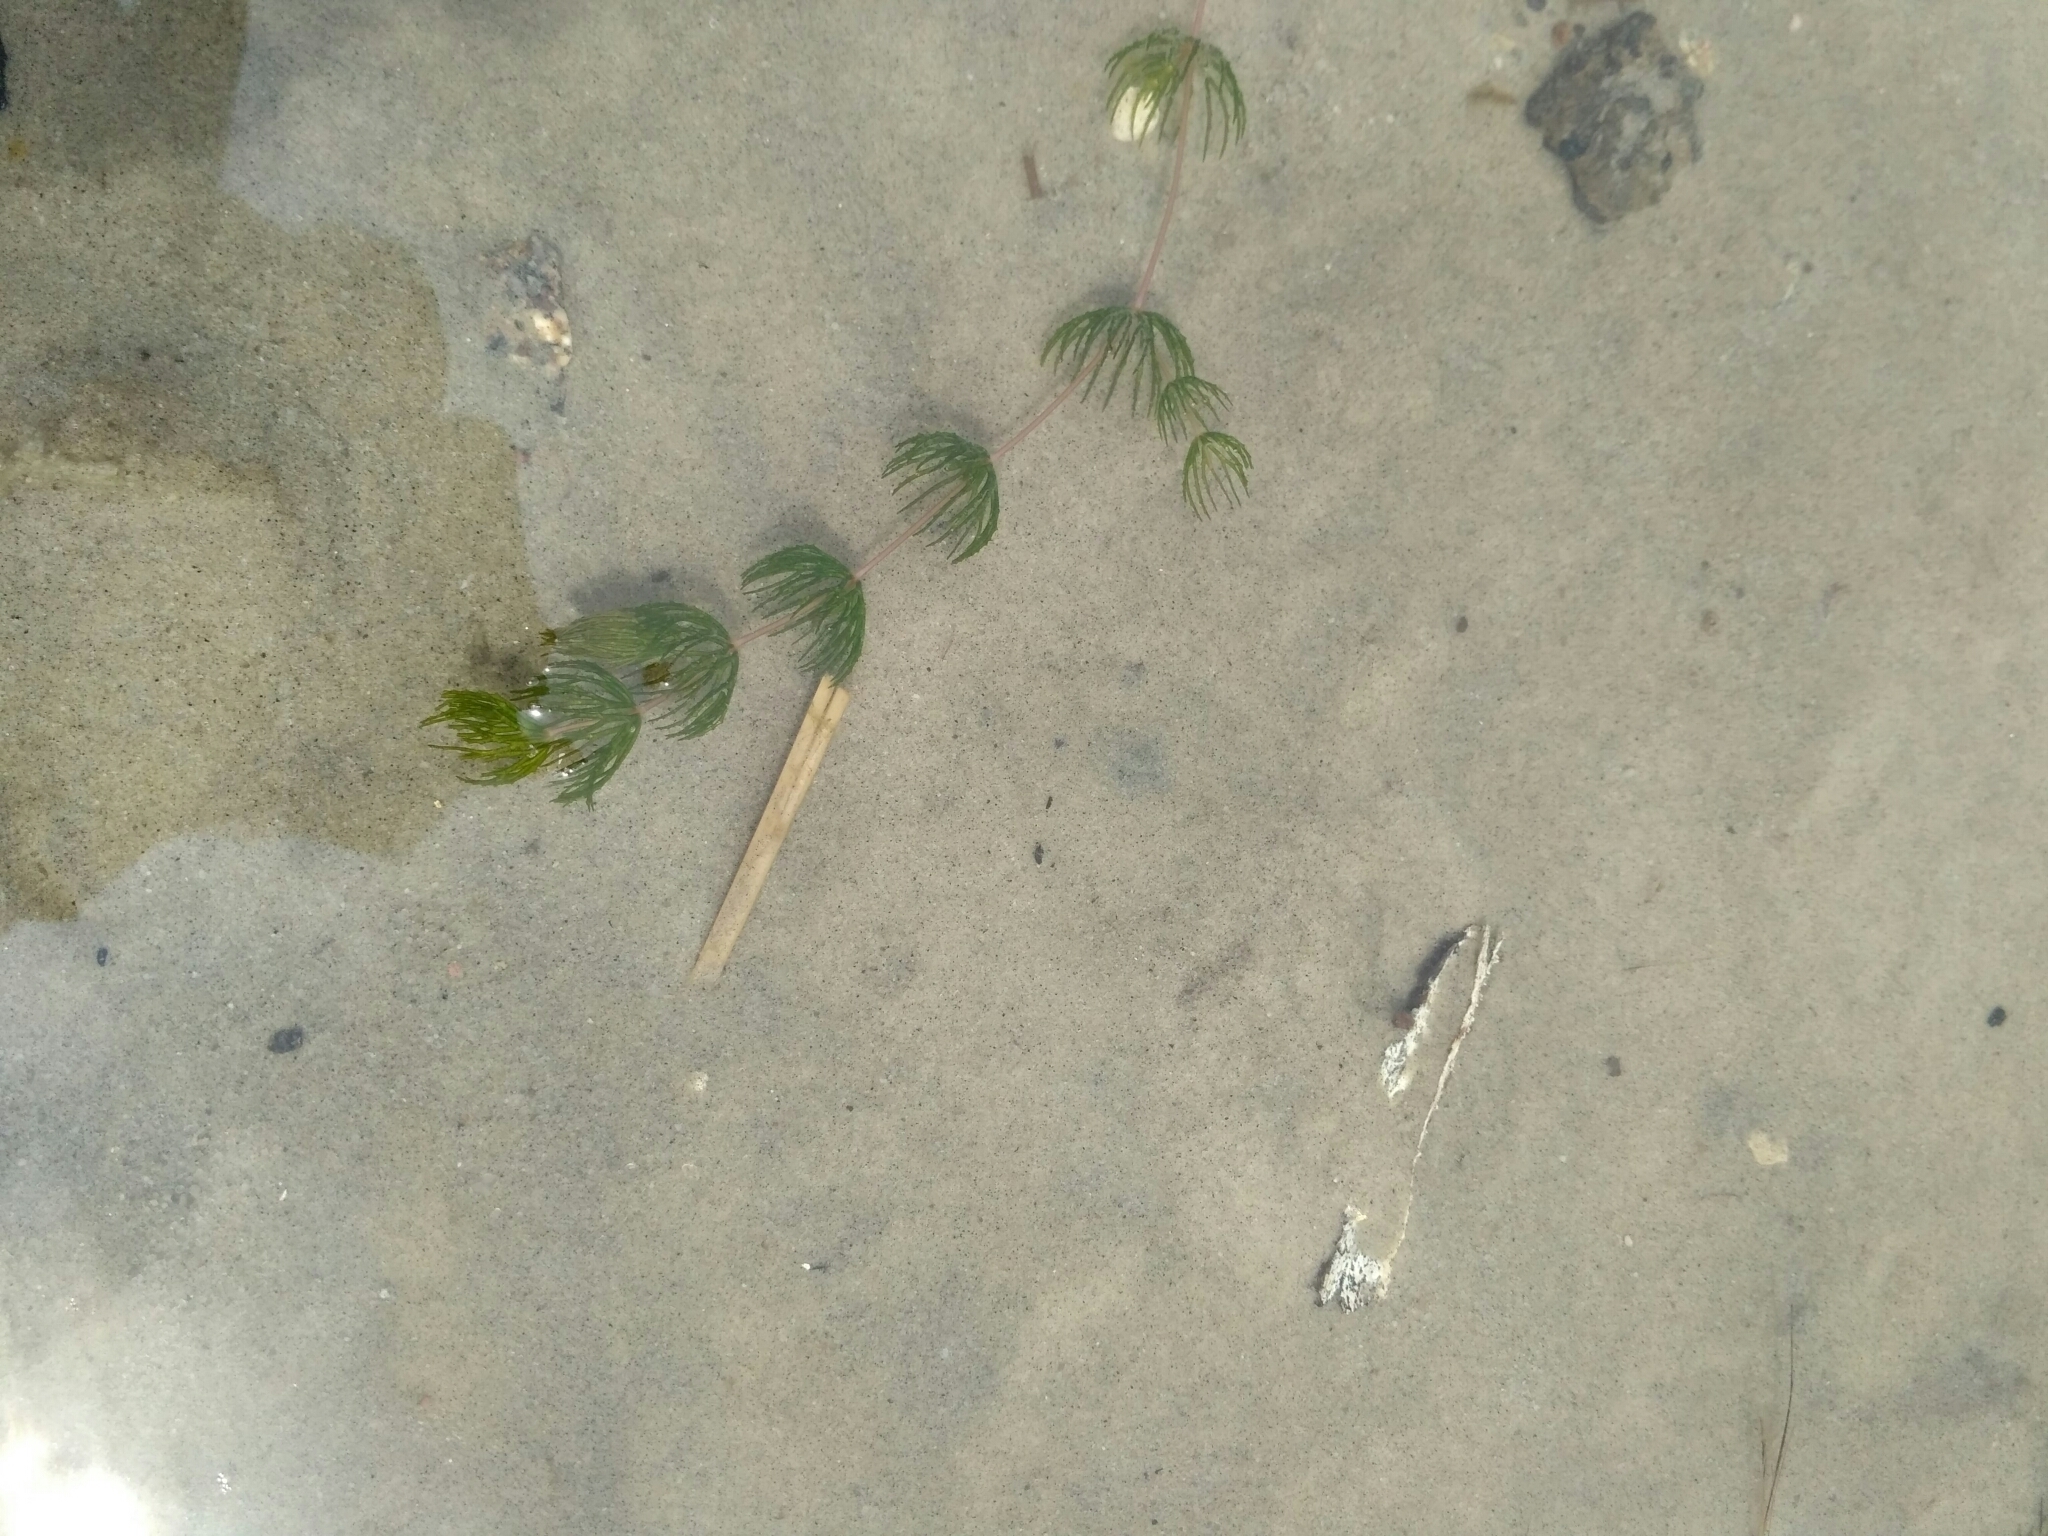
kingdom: Plantae
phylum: Tracheophyta
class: Magnoliopsida
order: Ceratophyllales
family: Ceratophyllaceae
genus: Ceratophyllum
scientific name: Ceratophyllum demersum
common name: Rigid hornwort
